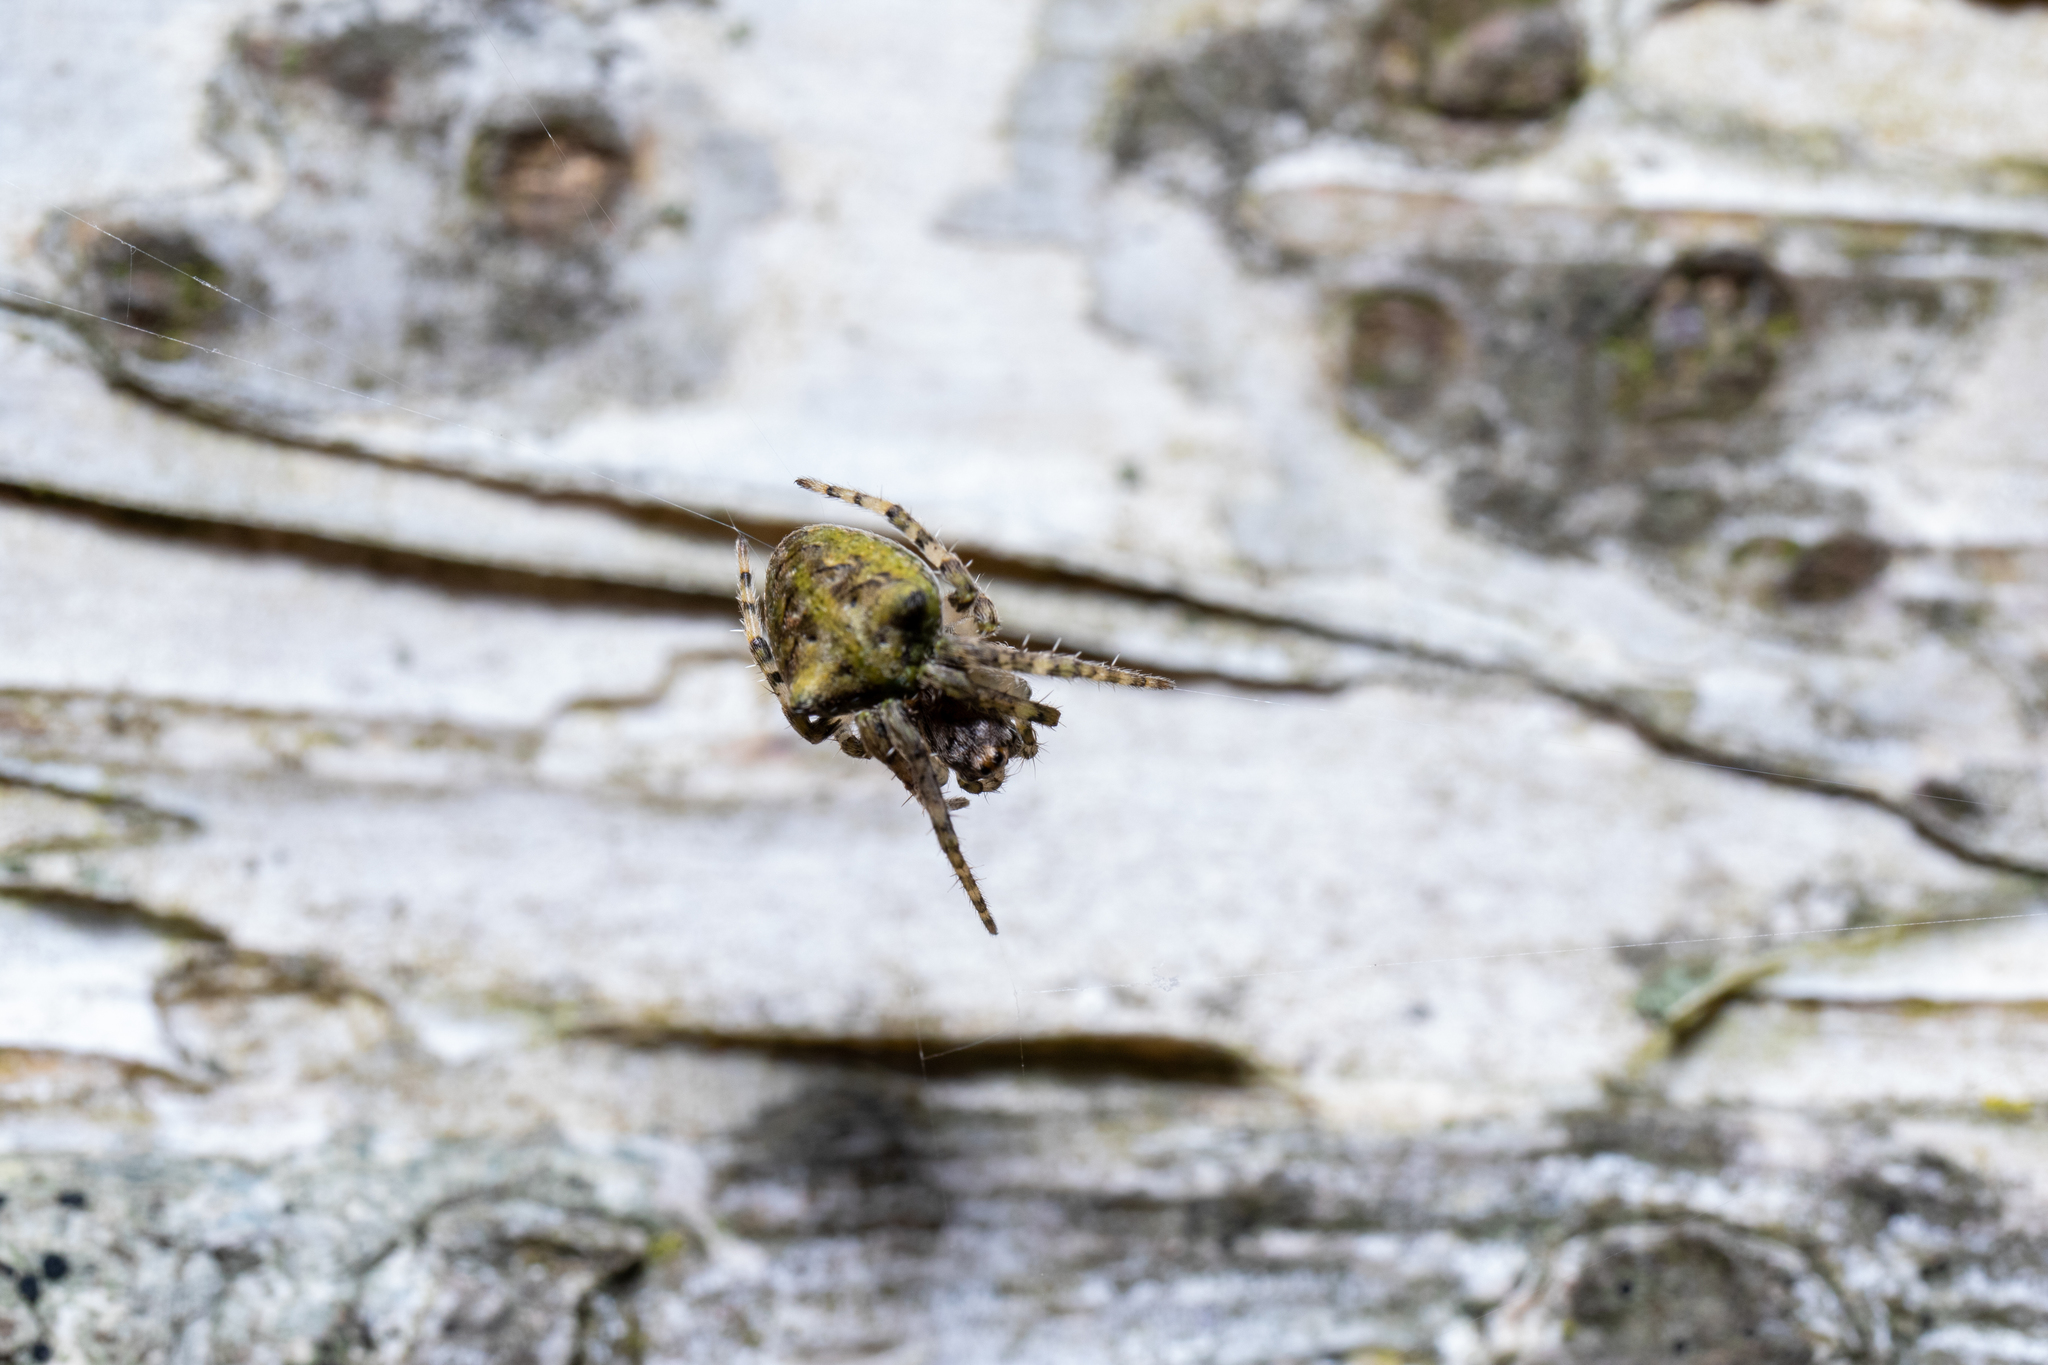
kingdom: Animalia
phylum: Arthropoda
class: Arachnida
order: Araneae
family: Araneidae
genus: Gibbaranea
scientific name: Gibbaranea gibbosa
